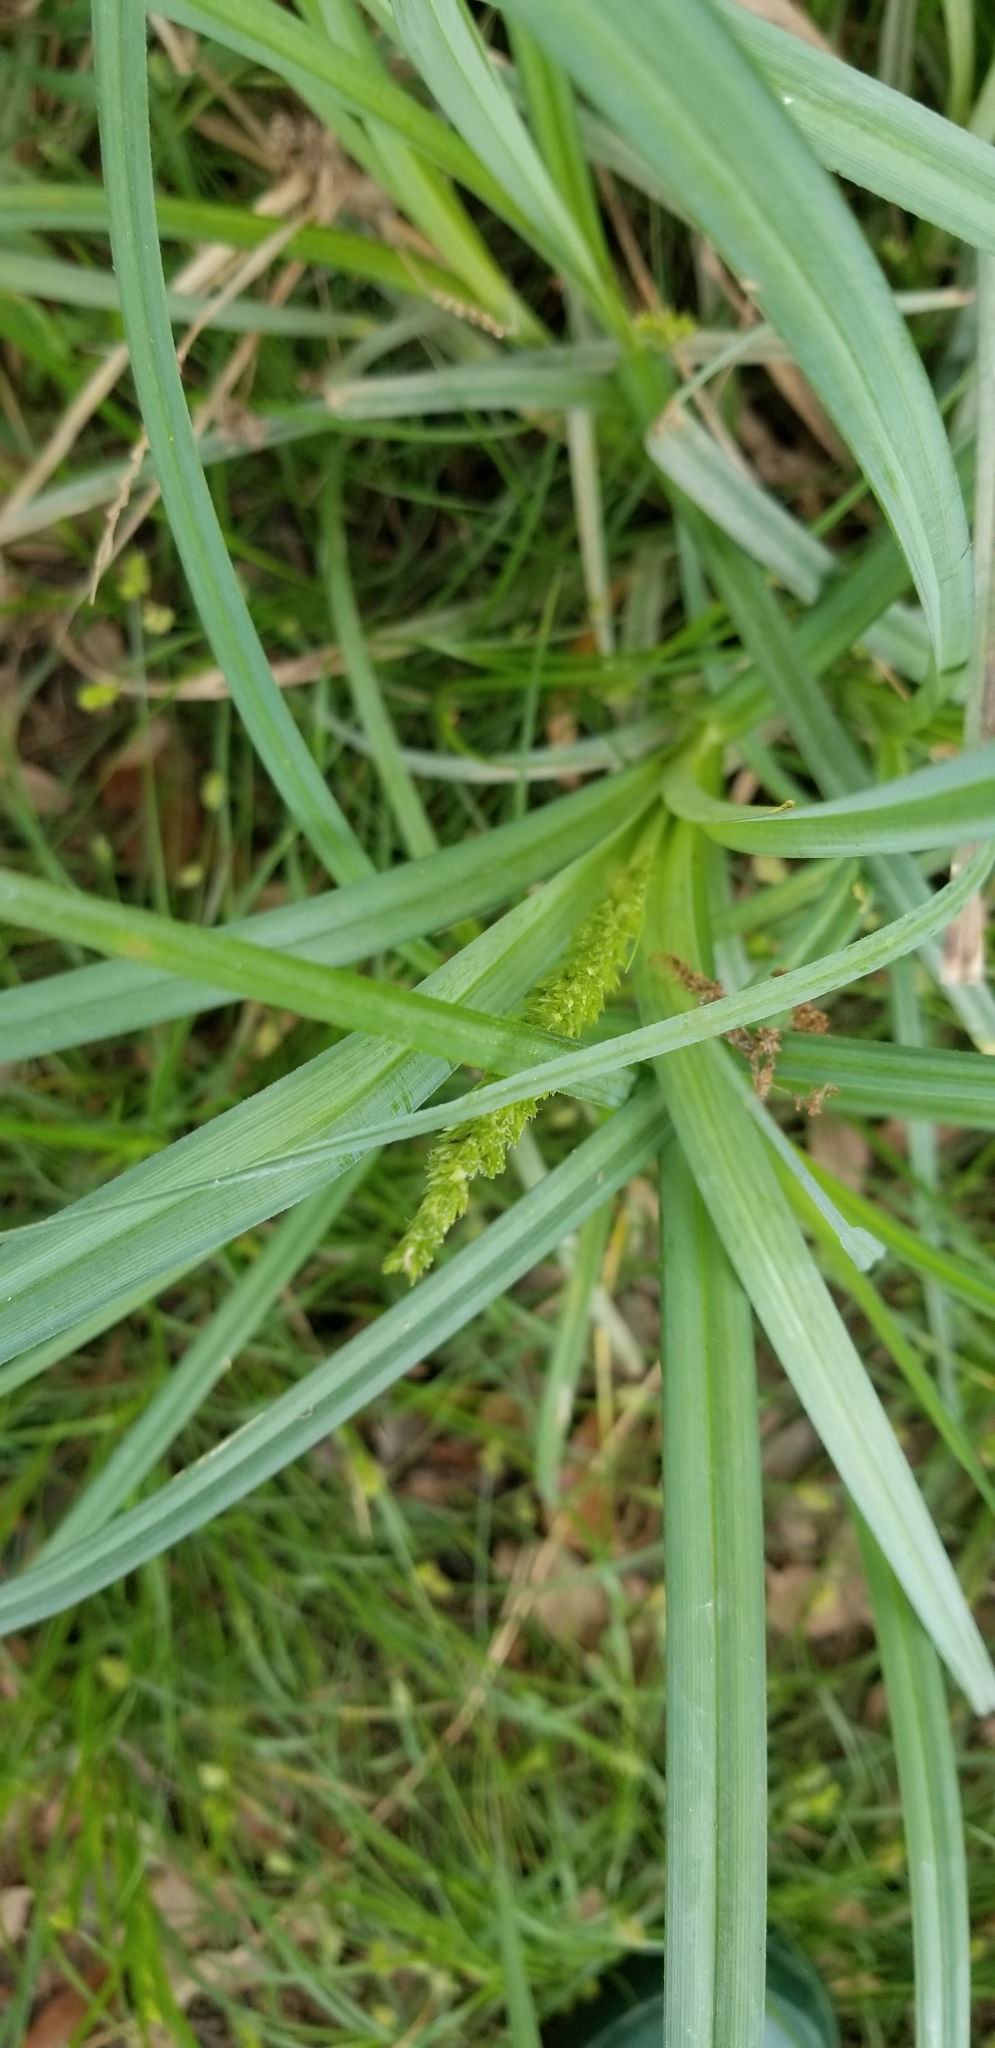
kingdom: Plantae
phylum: Tracheophyta
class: Liliopsida
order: Poales
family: Cyperaceae
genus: Carex
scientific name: Carex crus-corvi
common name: Crow-spur sedge
